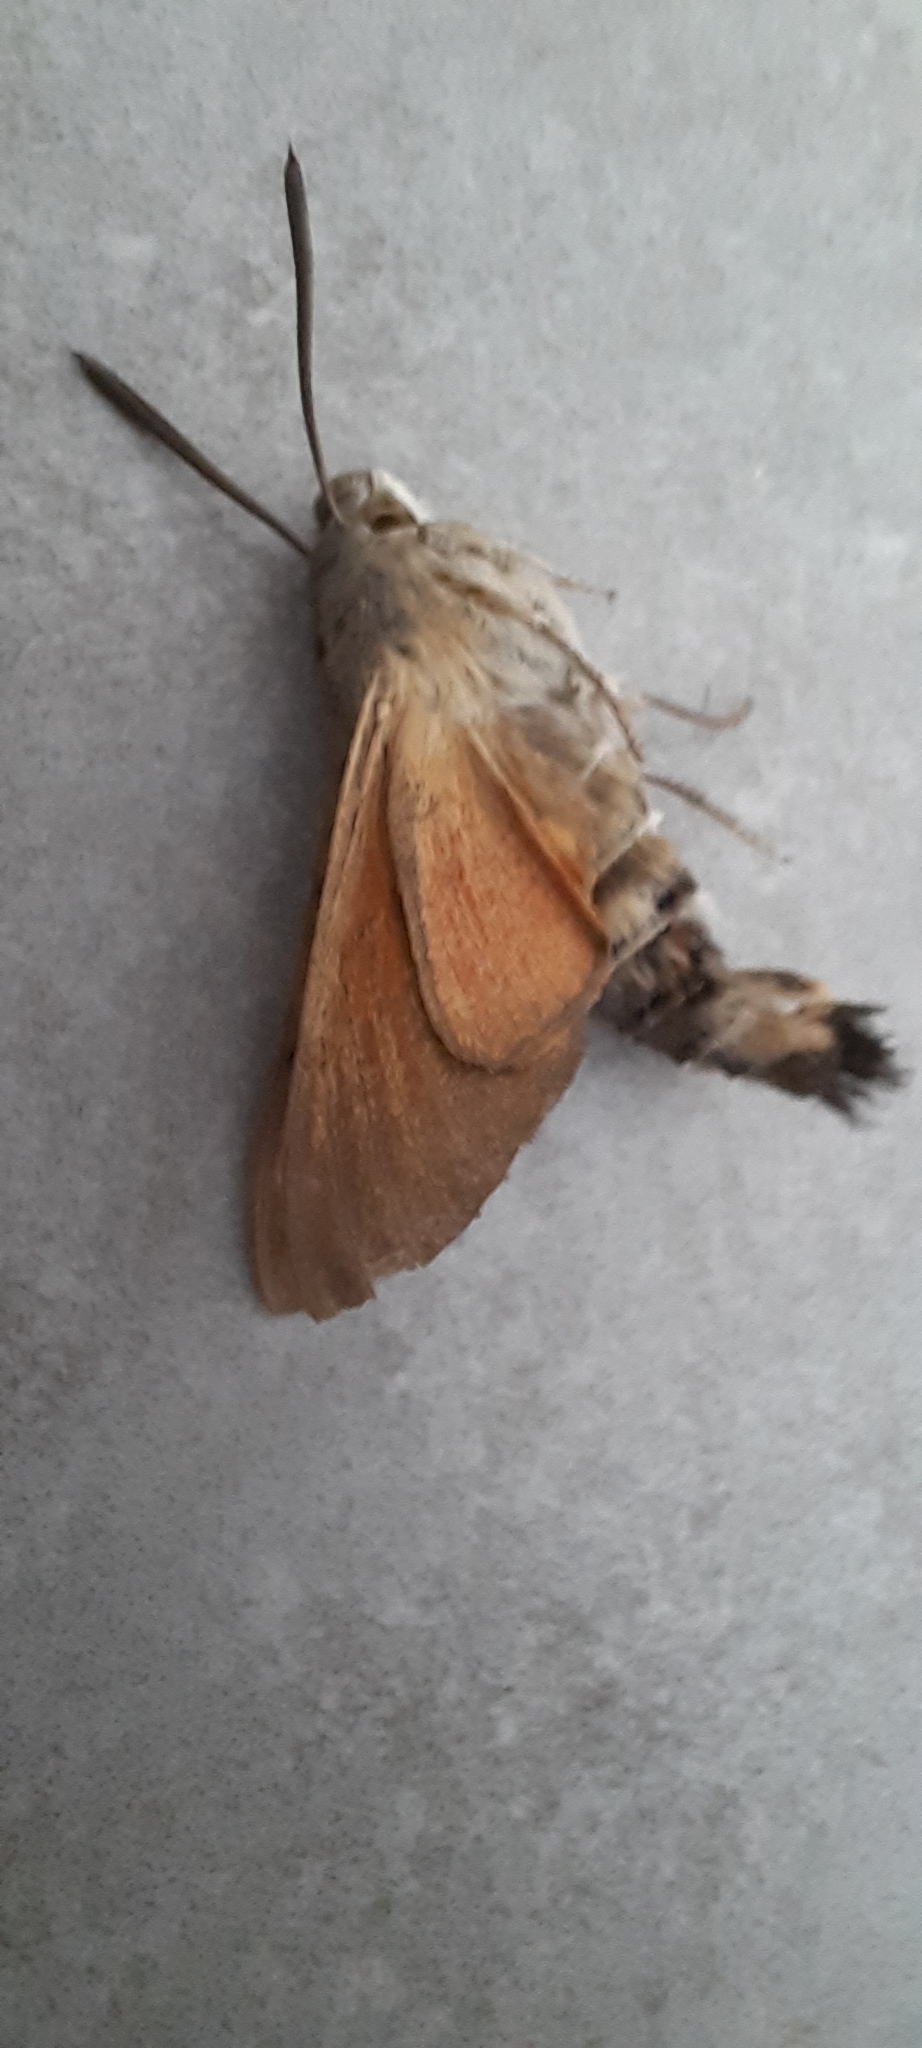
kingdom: Animalia
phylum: Arthropoda
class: Insecta
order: Lepidoptera
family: Sphingidae
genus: Macroglossum
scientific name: Macroglossum stellatarum
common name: Humming-bird hawk-moth
